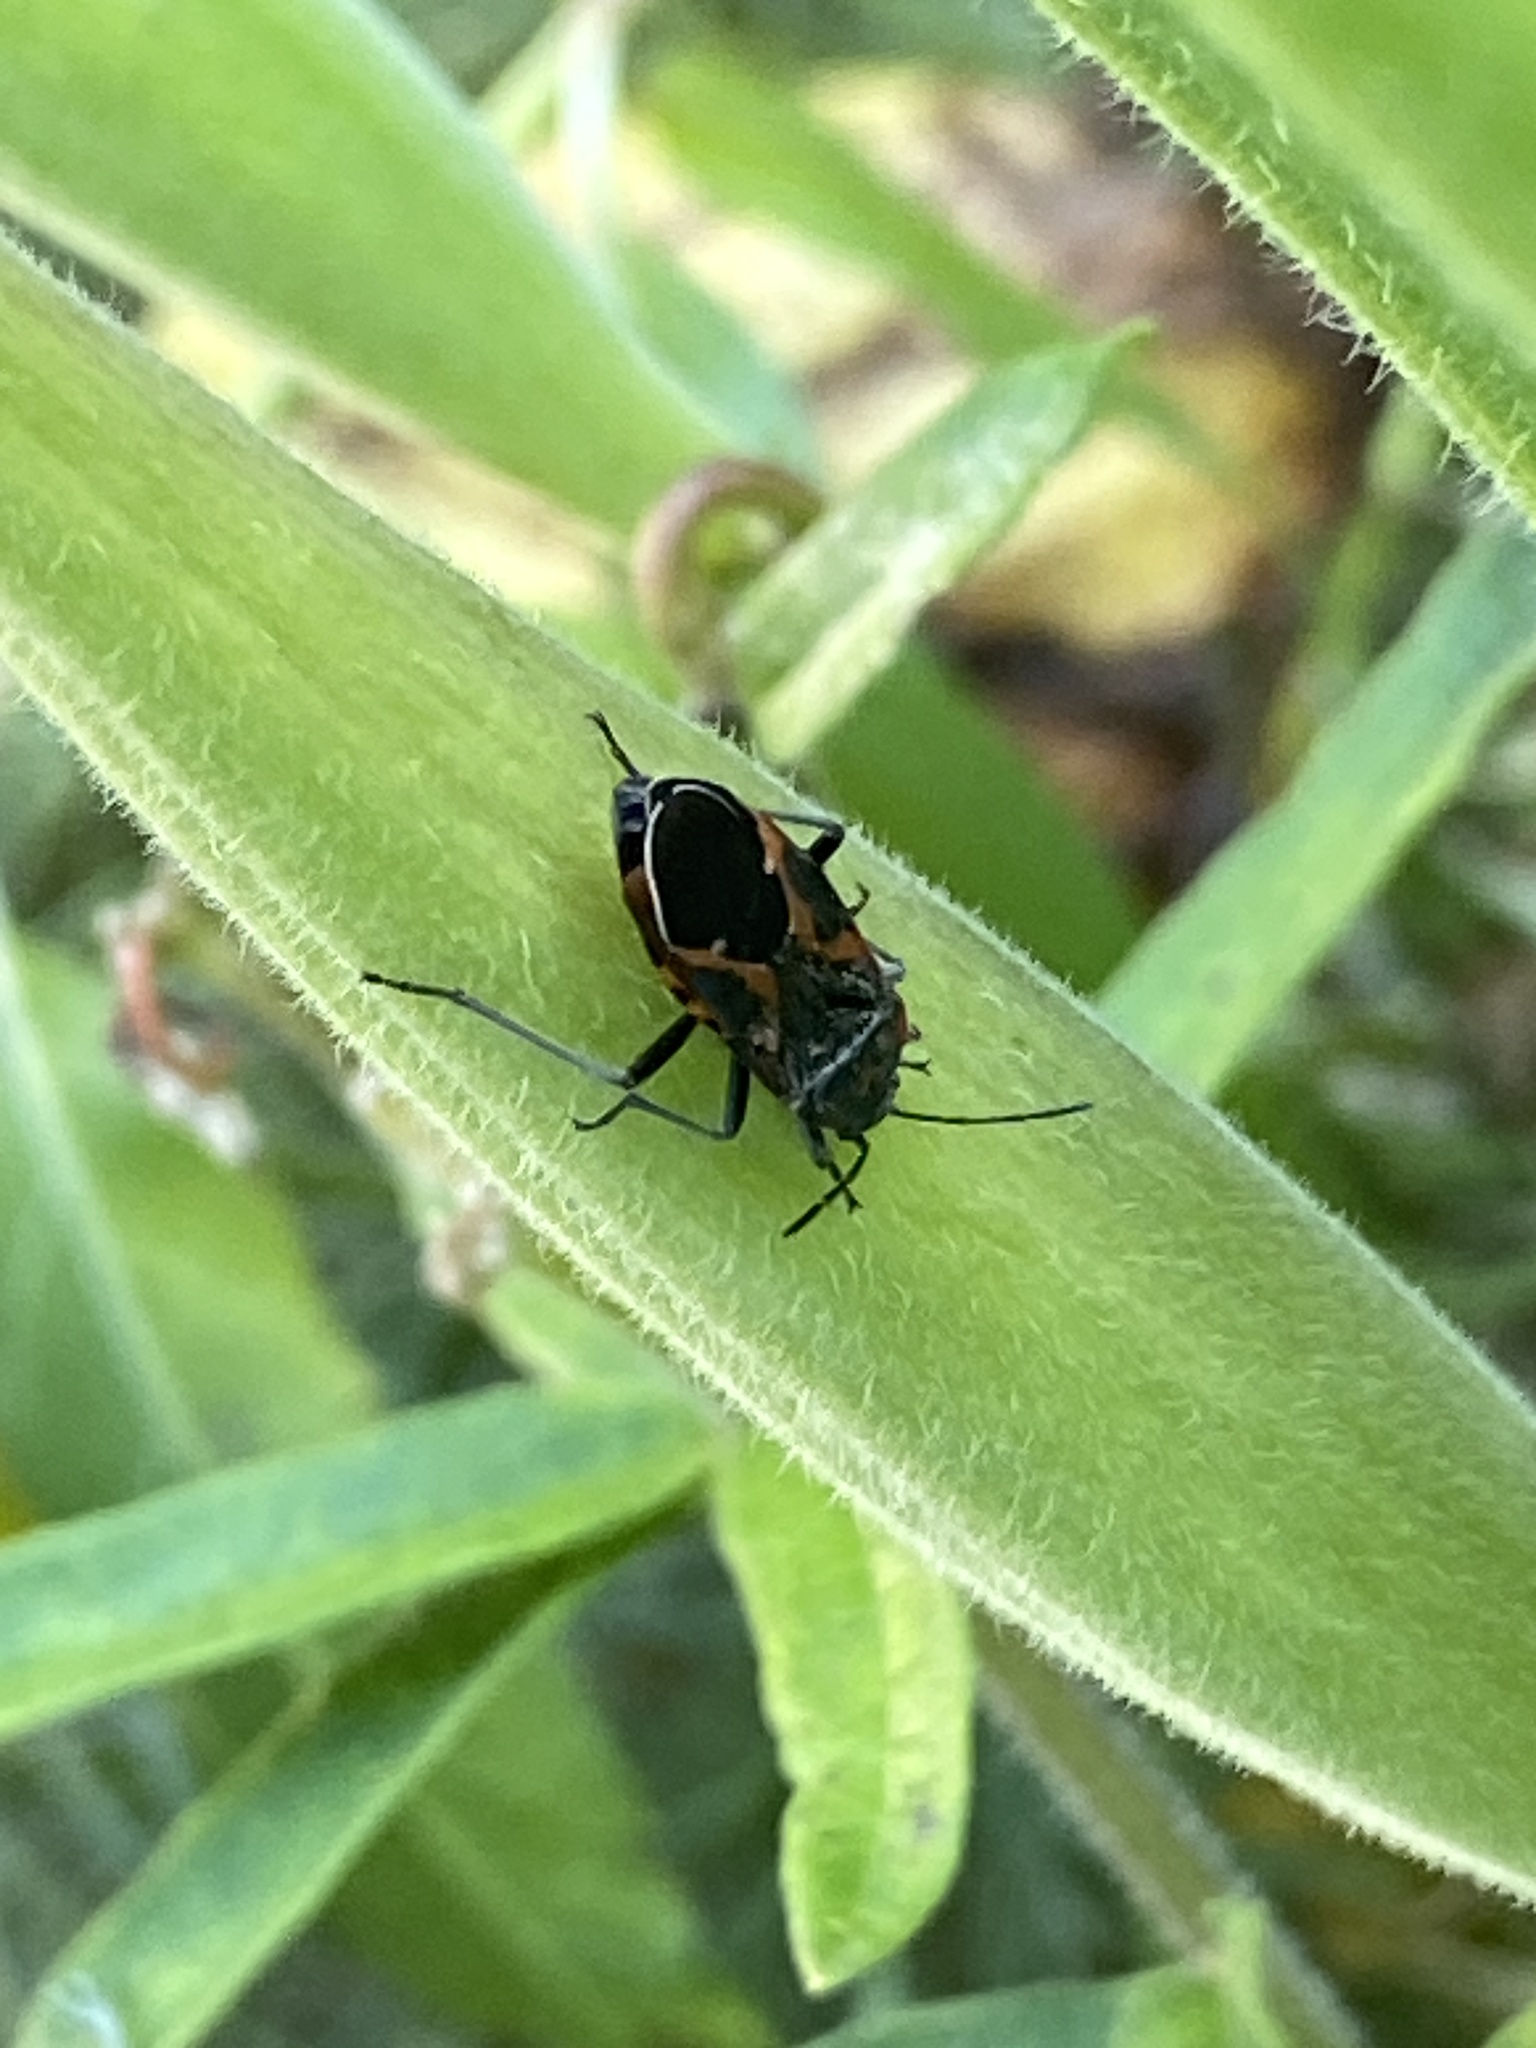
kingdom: Animalia
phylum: Arthropoda
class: Insecta
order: Hemiptera
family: Lygaeidae
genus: Lygaeus
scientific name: Lygaeus kalmii
